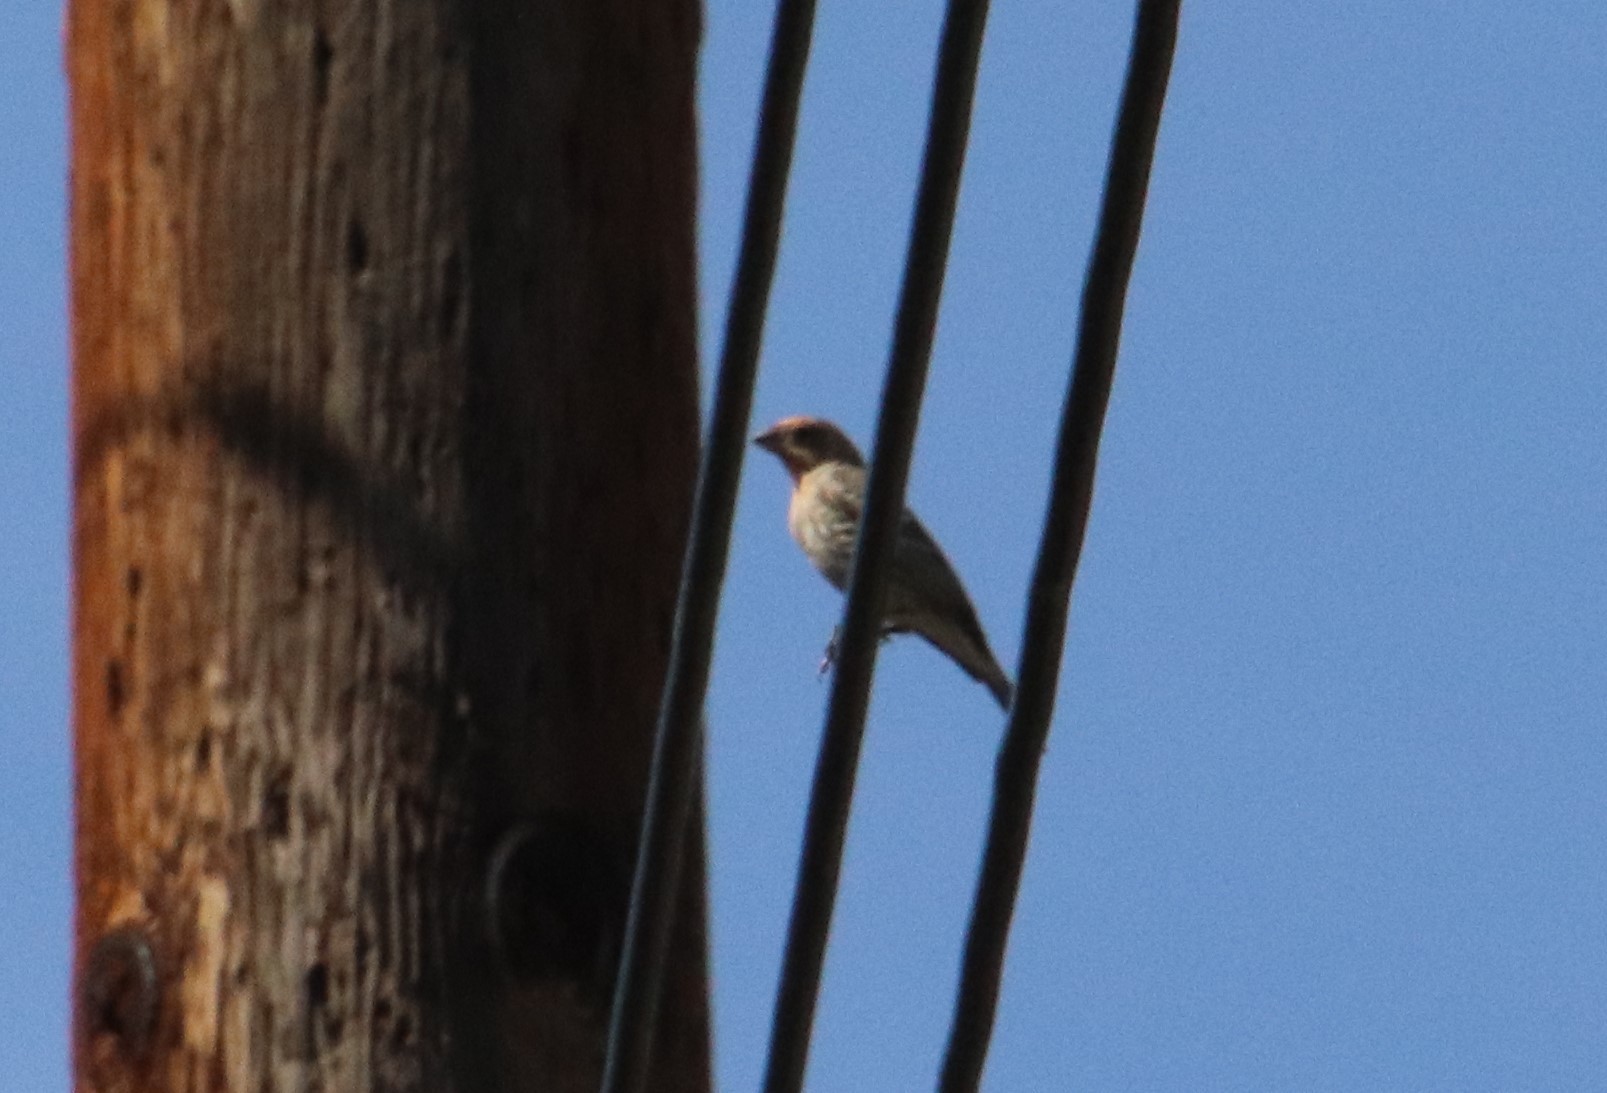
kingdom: Animalia
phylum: Chordata
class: Aves
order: Passeriformes
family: Fringillidae
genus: Haemorhous
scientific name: Haemorhous mexicanus
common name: House finch
